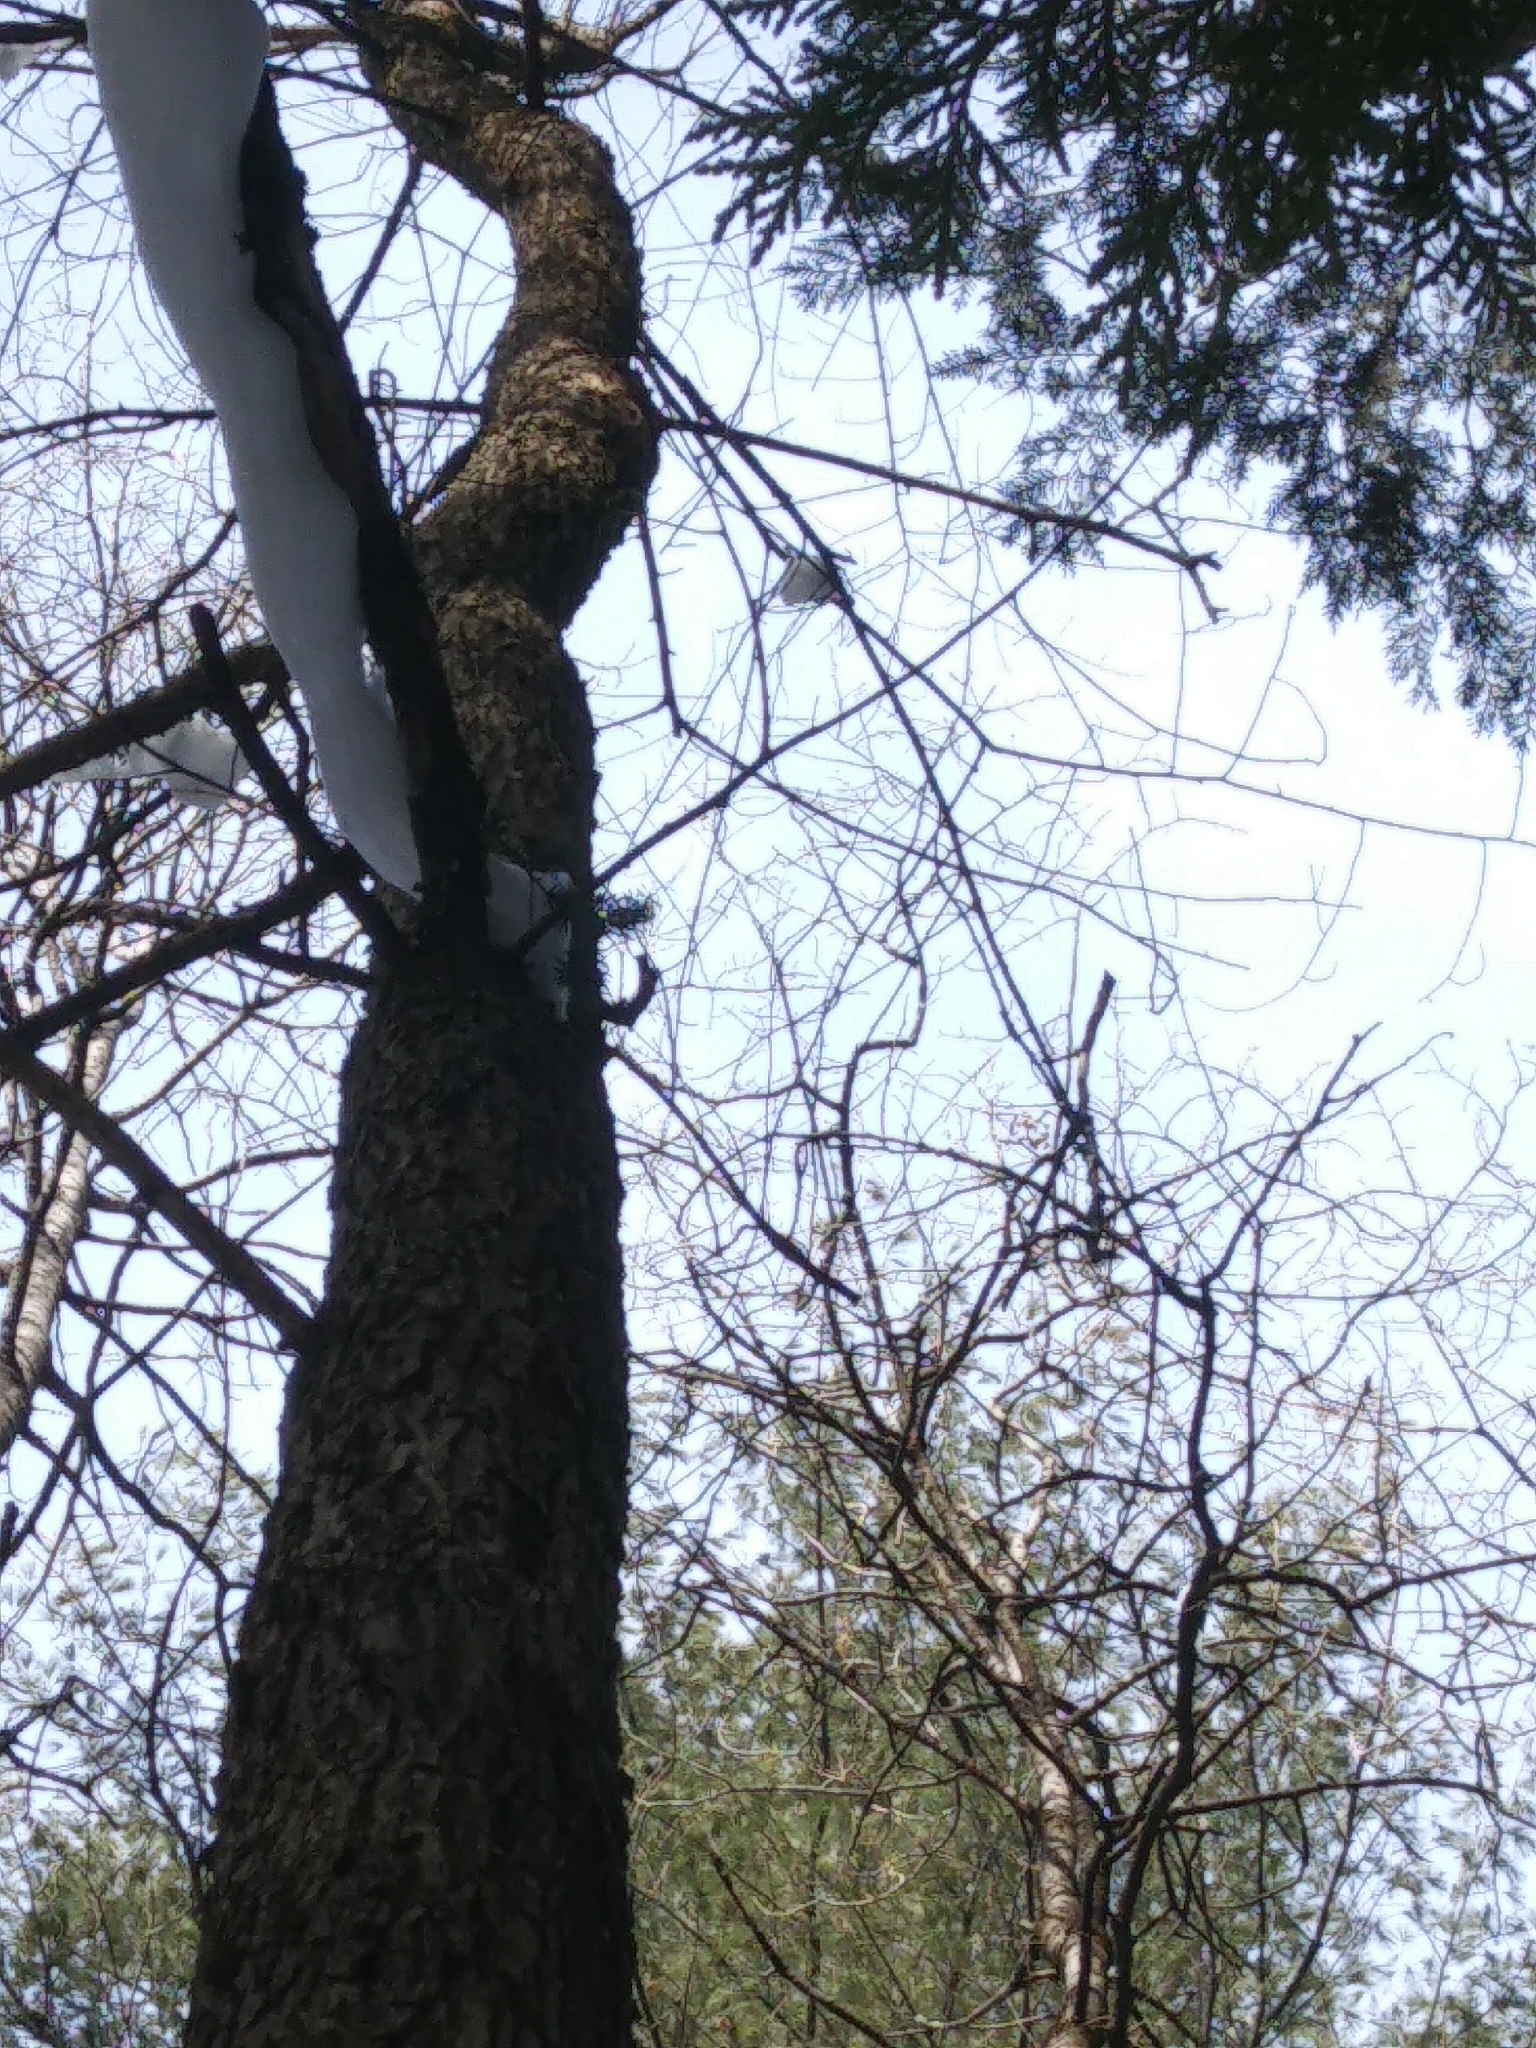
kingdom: Plantae
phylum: Tracheophyta
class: Magnoliopsida
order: Rosales
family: Ulmaceae
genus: Ulmus
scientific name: Ulmus americana
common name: American elm
